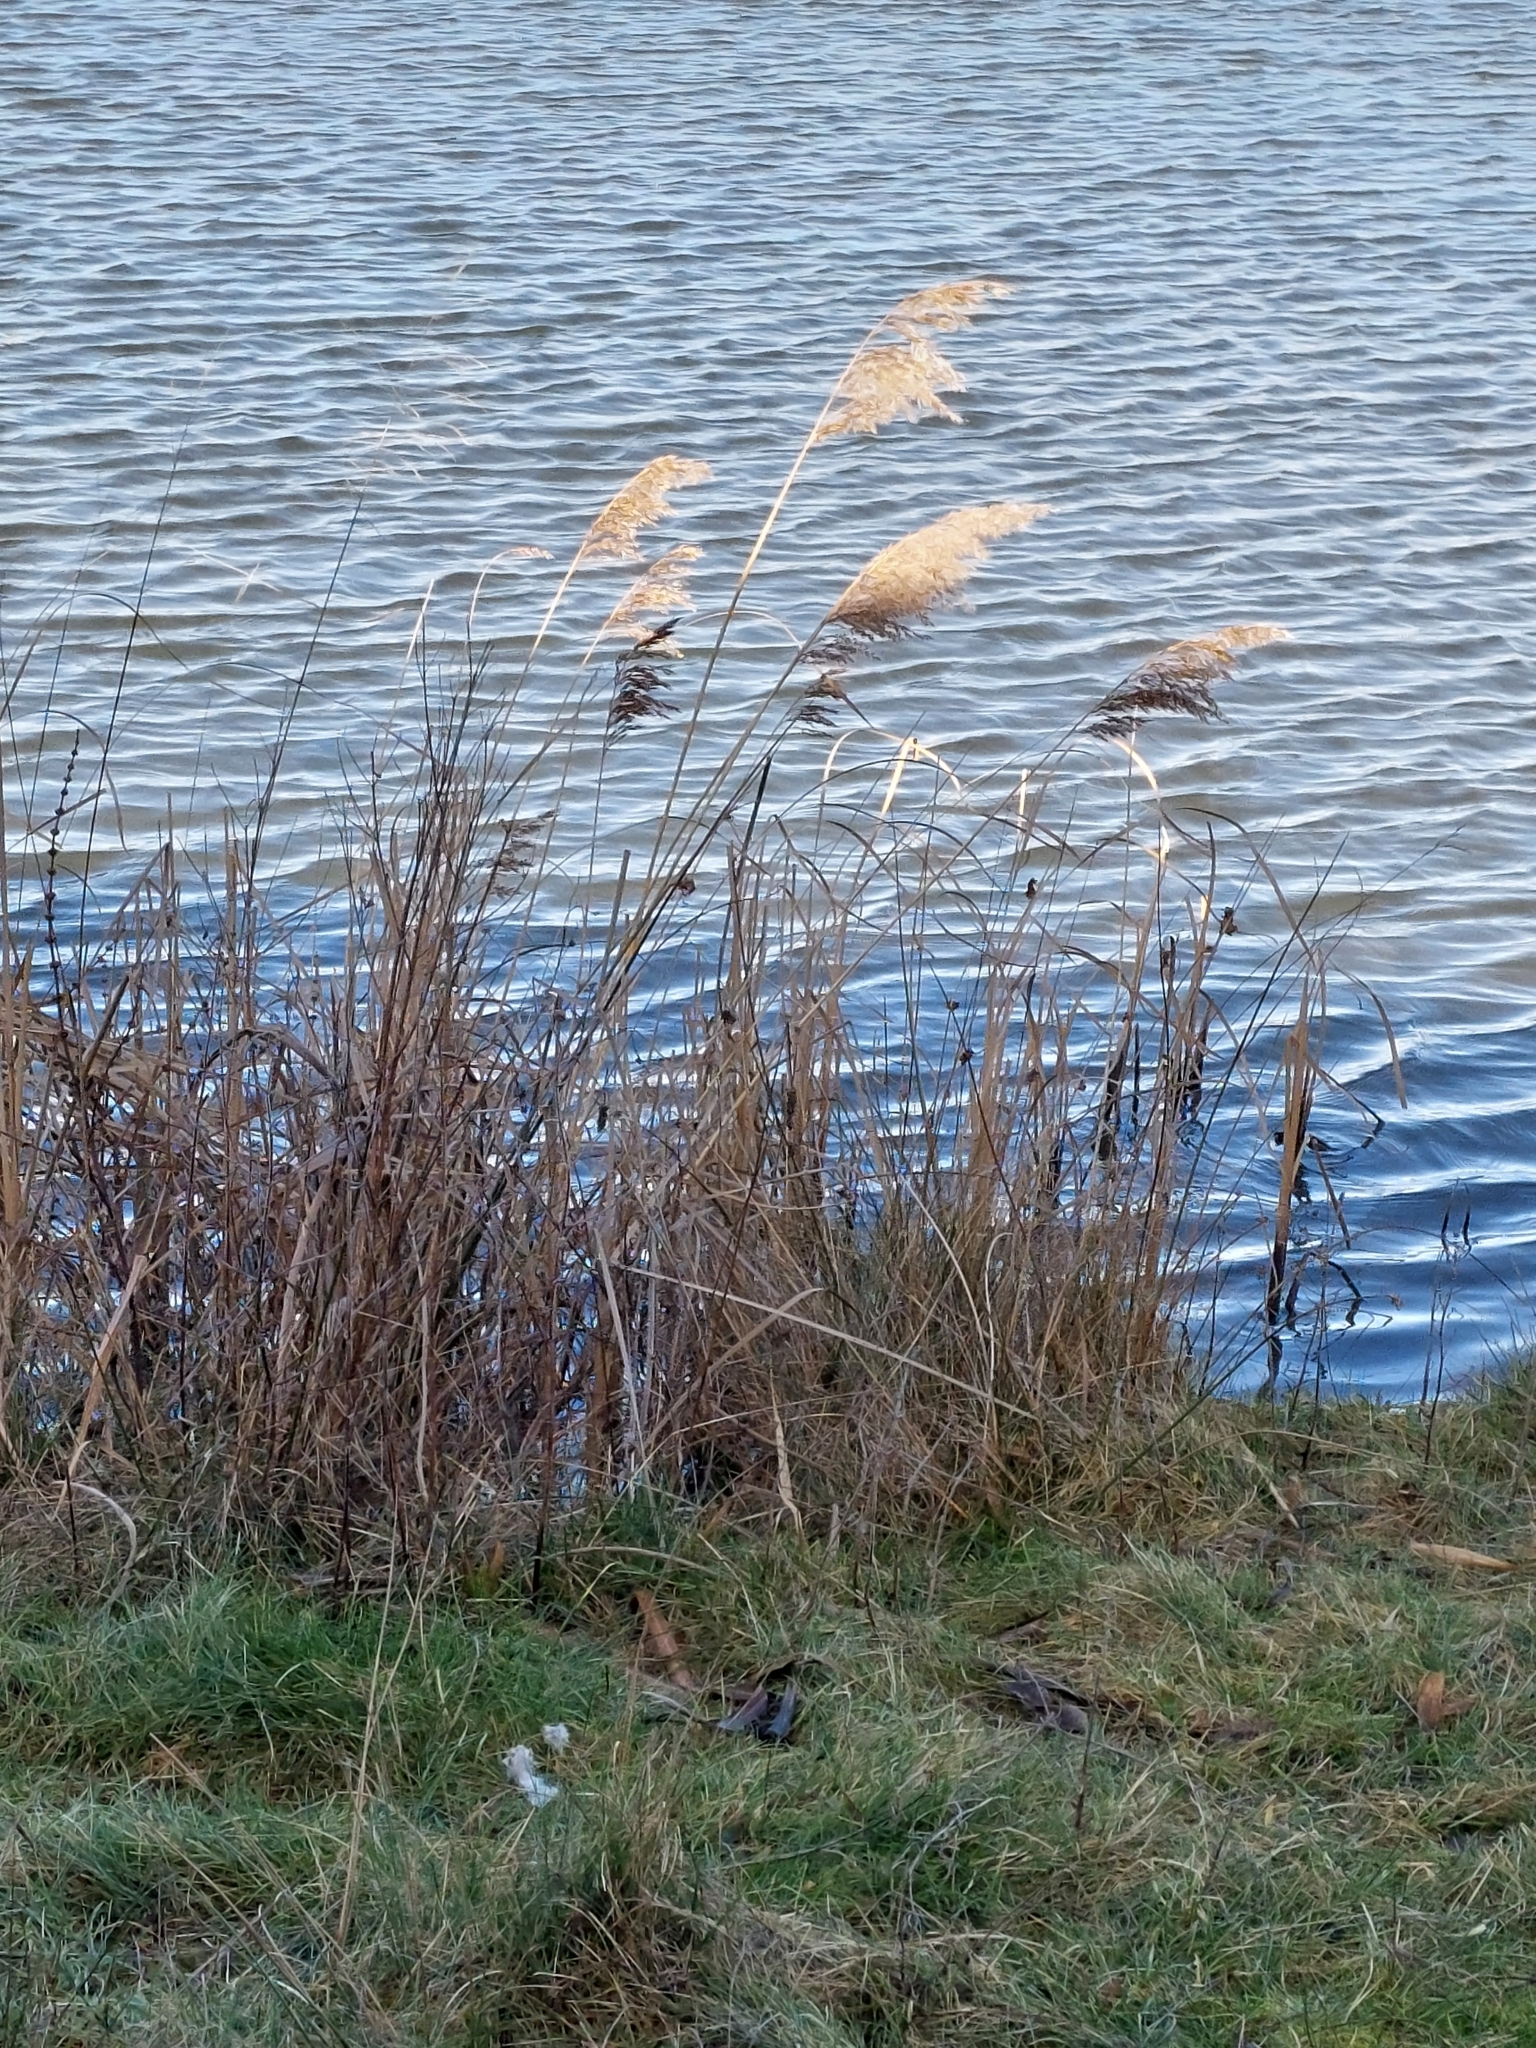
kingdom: Plantae
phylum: Tracheophyta
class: Liliopsida
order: Poales
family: Poaceae
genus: Phragmites
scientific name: Phragmites australis
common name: Common reed
